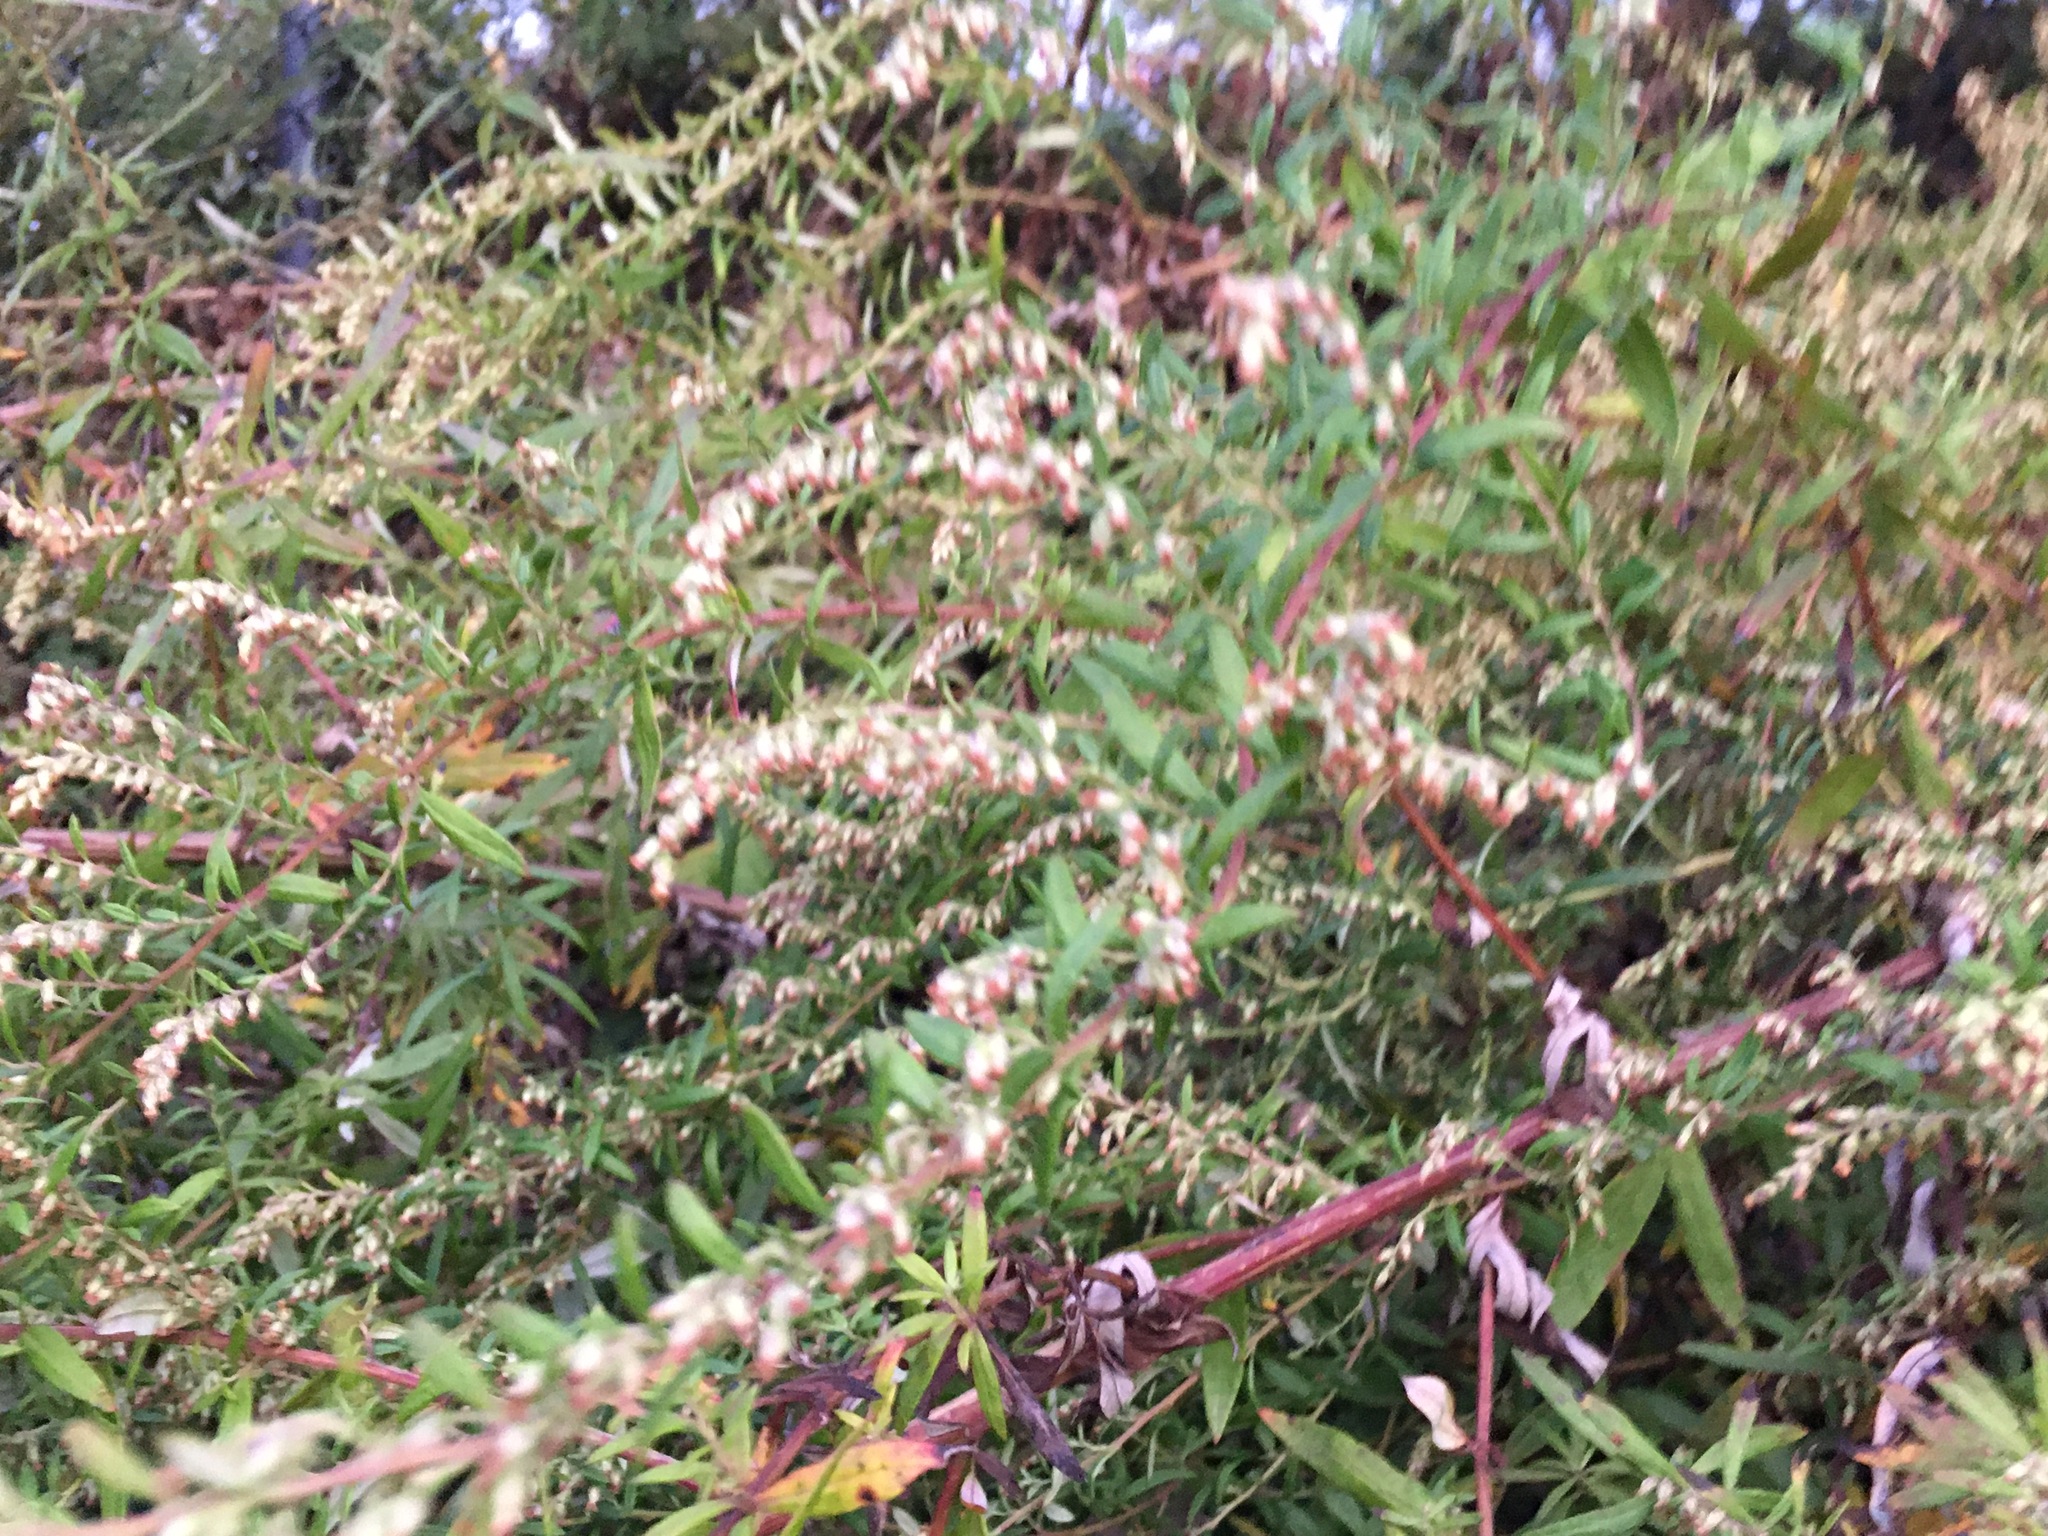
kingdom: Plantae
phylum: Tracheophyta
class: Magnoliopsida
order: Asterales
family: Asteraceae
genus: Artemisia
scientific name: Artemisia vulgaris
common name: Mugwort
